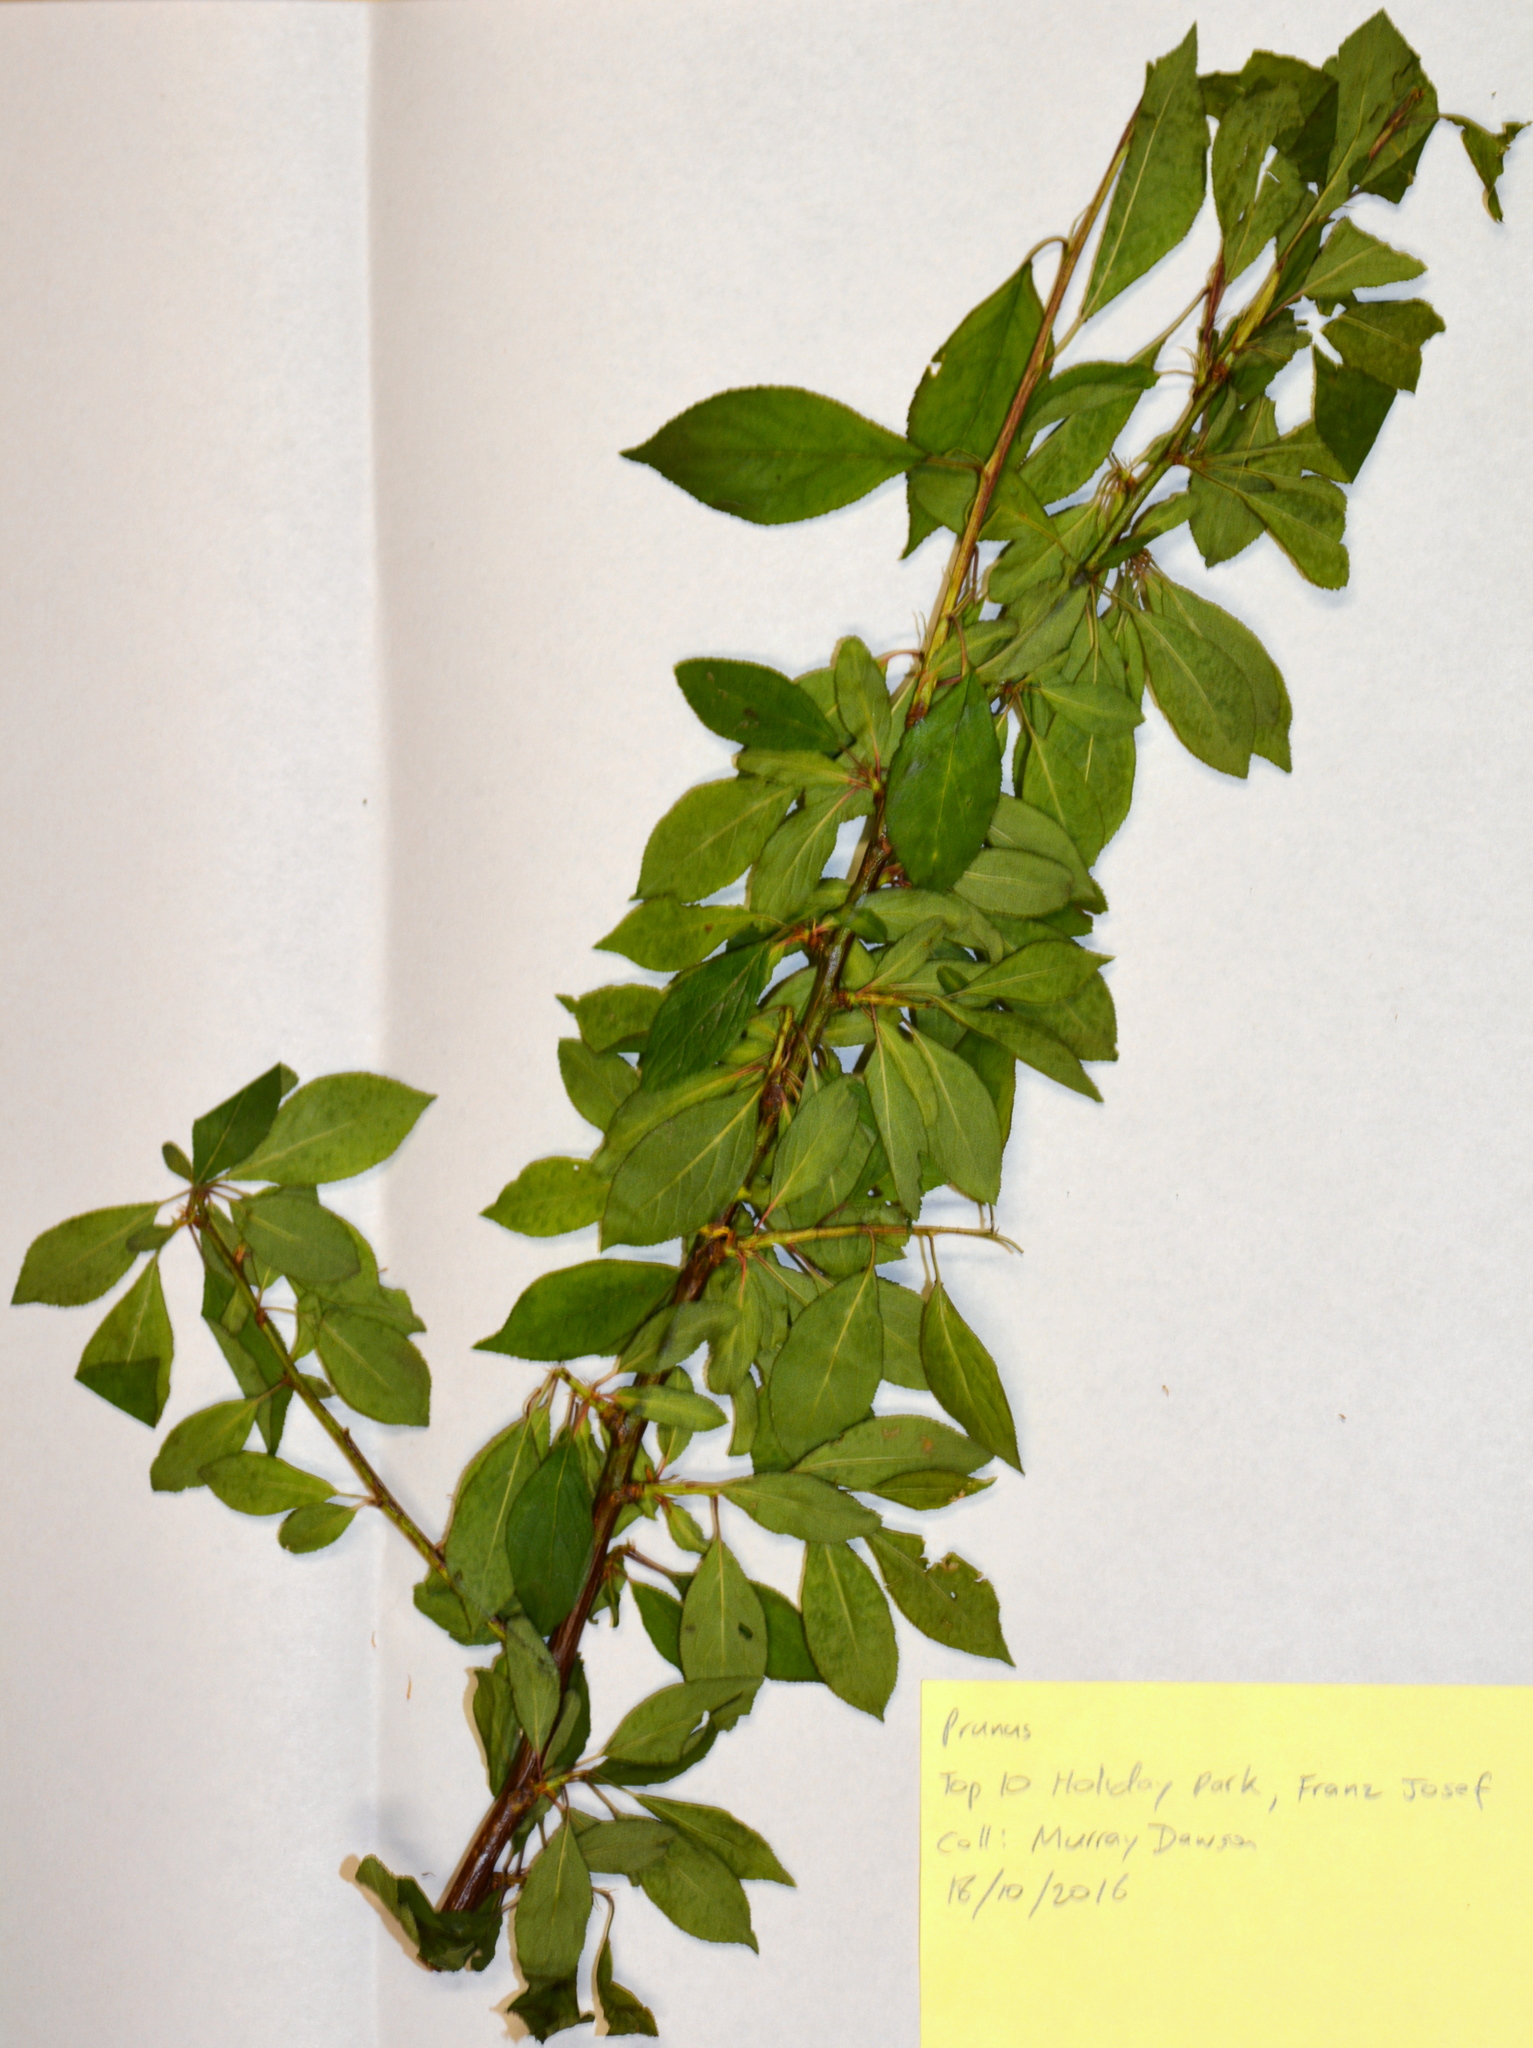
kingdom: Plantae
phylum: Tracheophyta
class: Magnoliopsida
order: Rosales
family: Rosaceae
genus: Prunus
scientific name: Prunus
